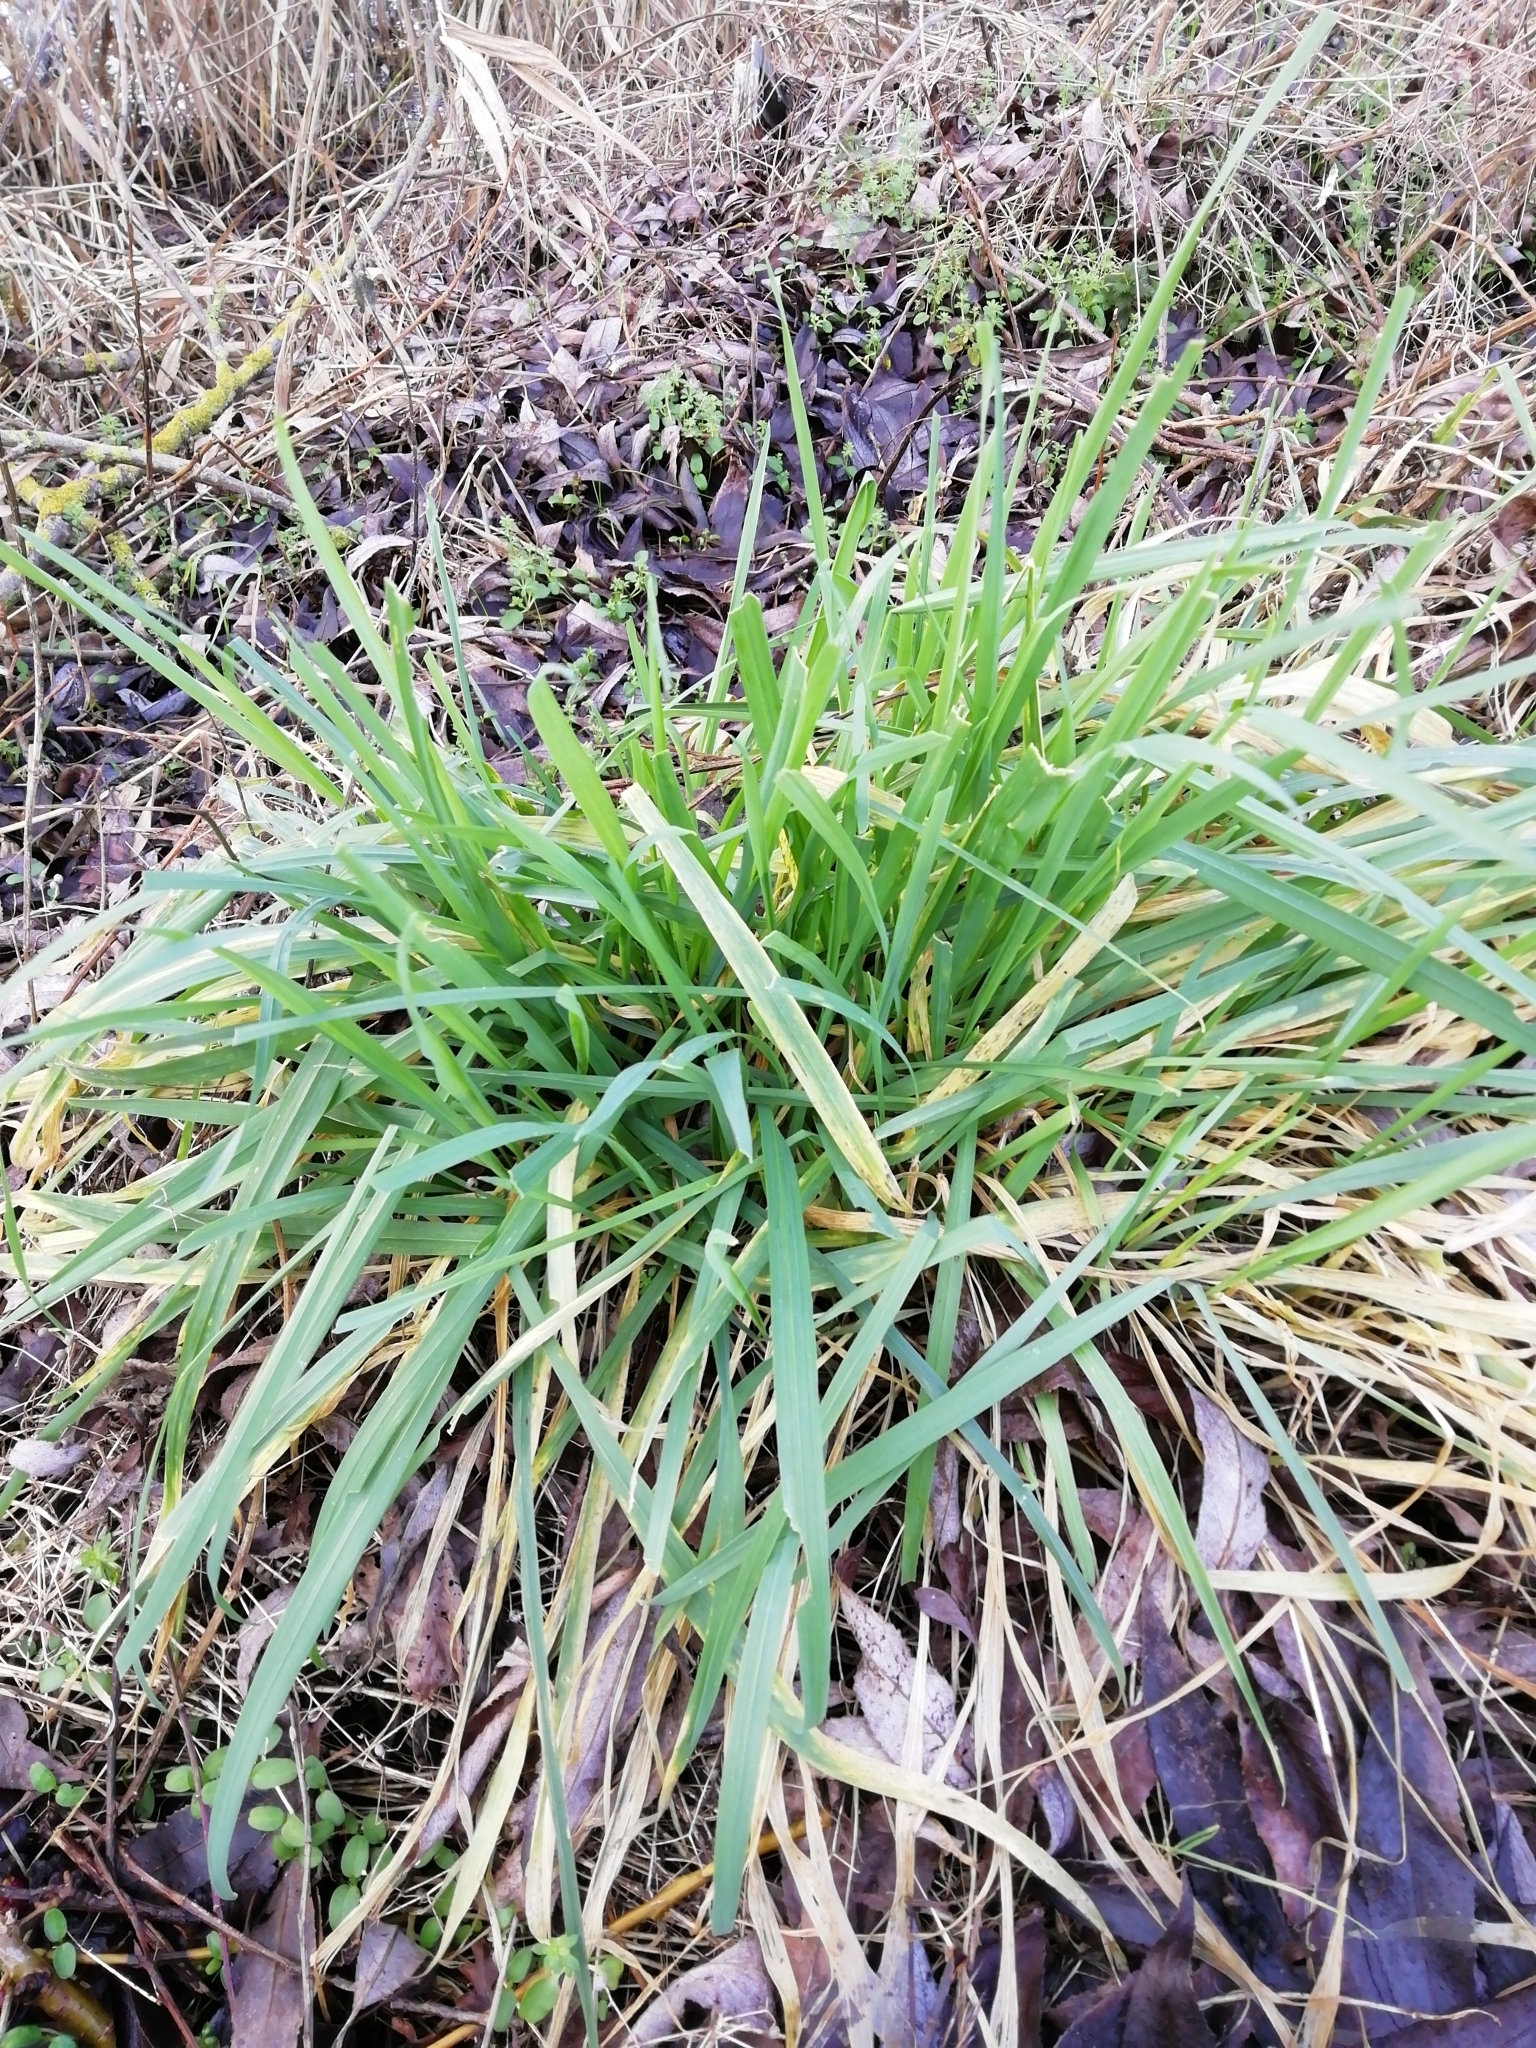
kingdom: Plantae
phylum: Tracheophyta
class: Liliopsida
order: Poales
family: Poaceae
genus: Holcus
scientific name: Holcus lanatus
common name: Yorkshire-fog
